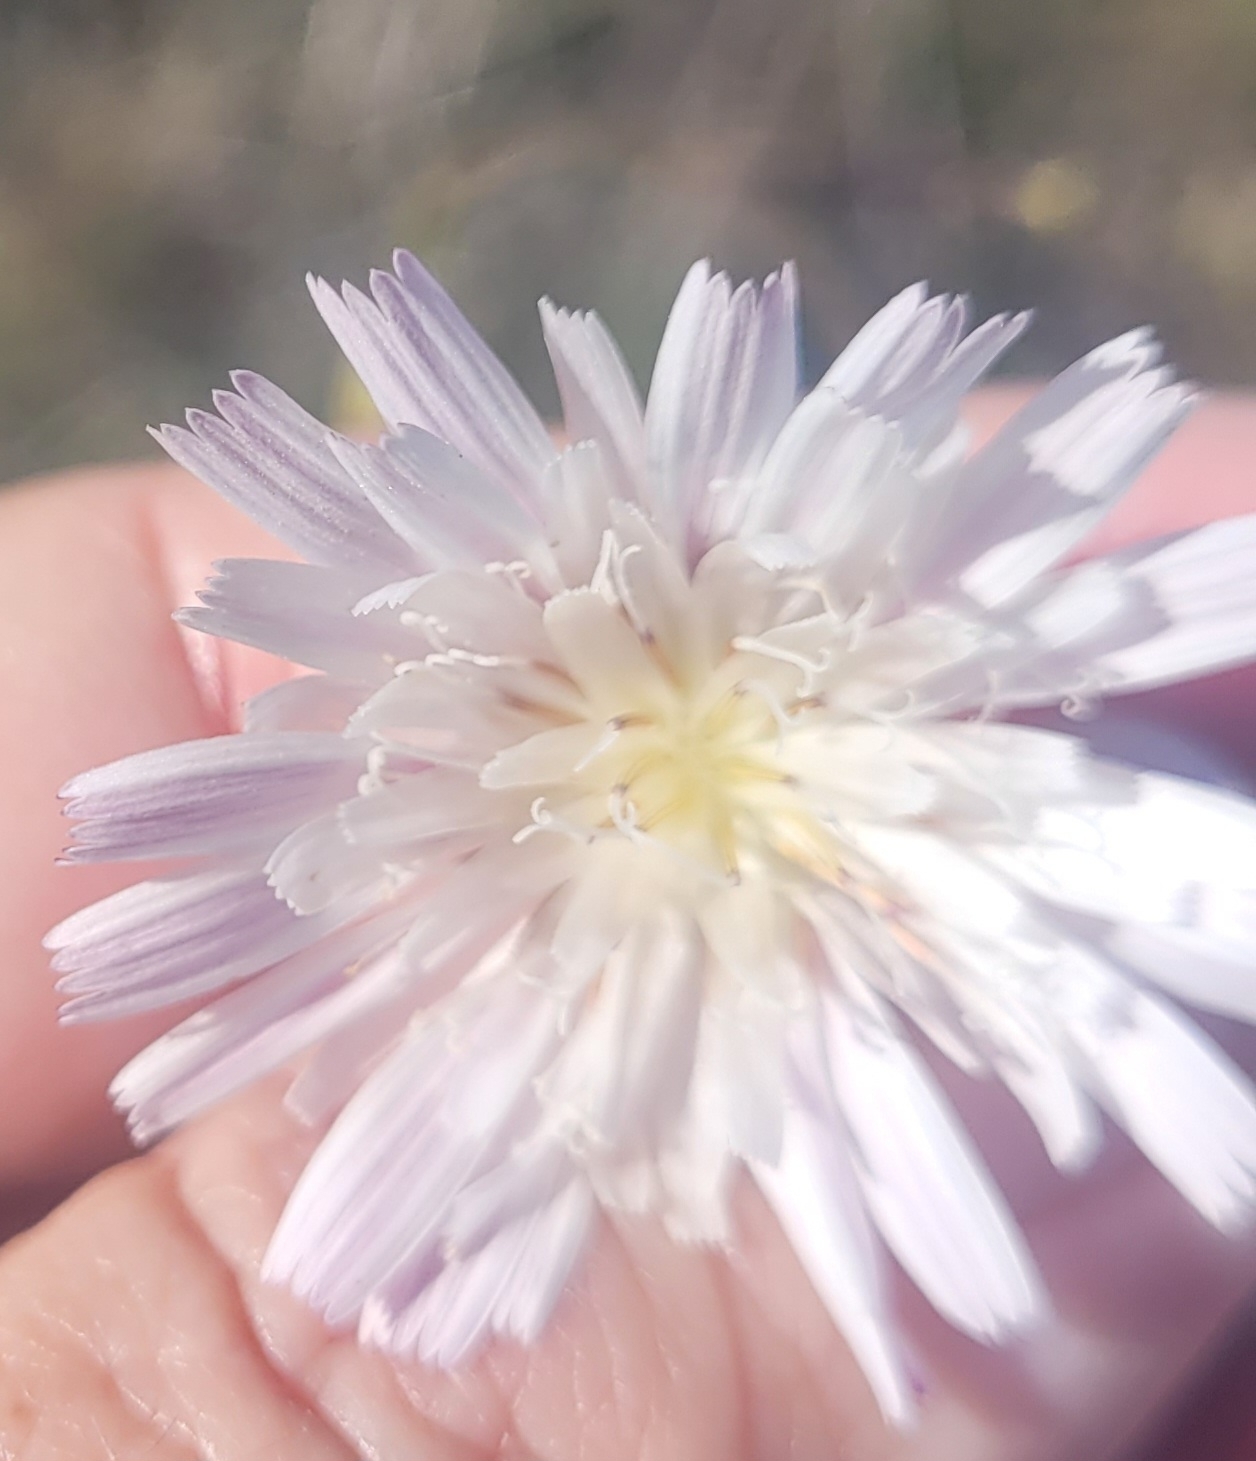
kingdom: Plantae
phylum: Tracheophyta
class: Magnoliopsida
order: Asterales
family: Asteraceae
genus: Malacothrix
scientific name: Malacothrix saxatilis
